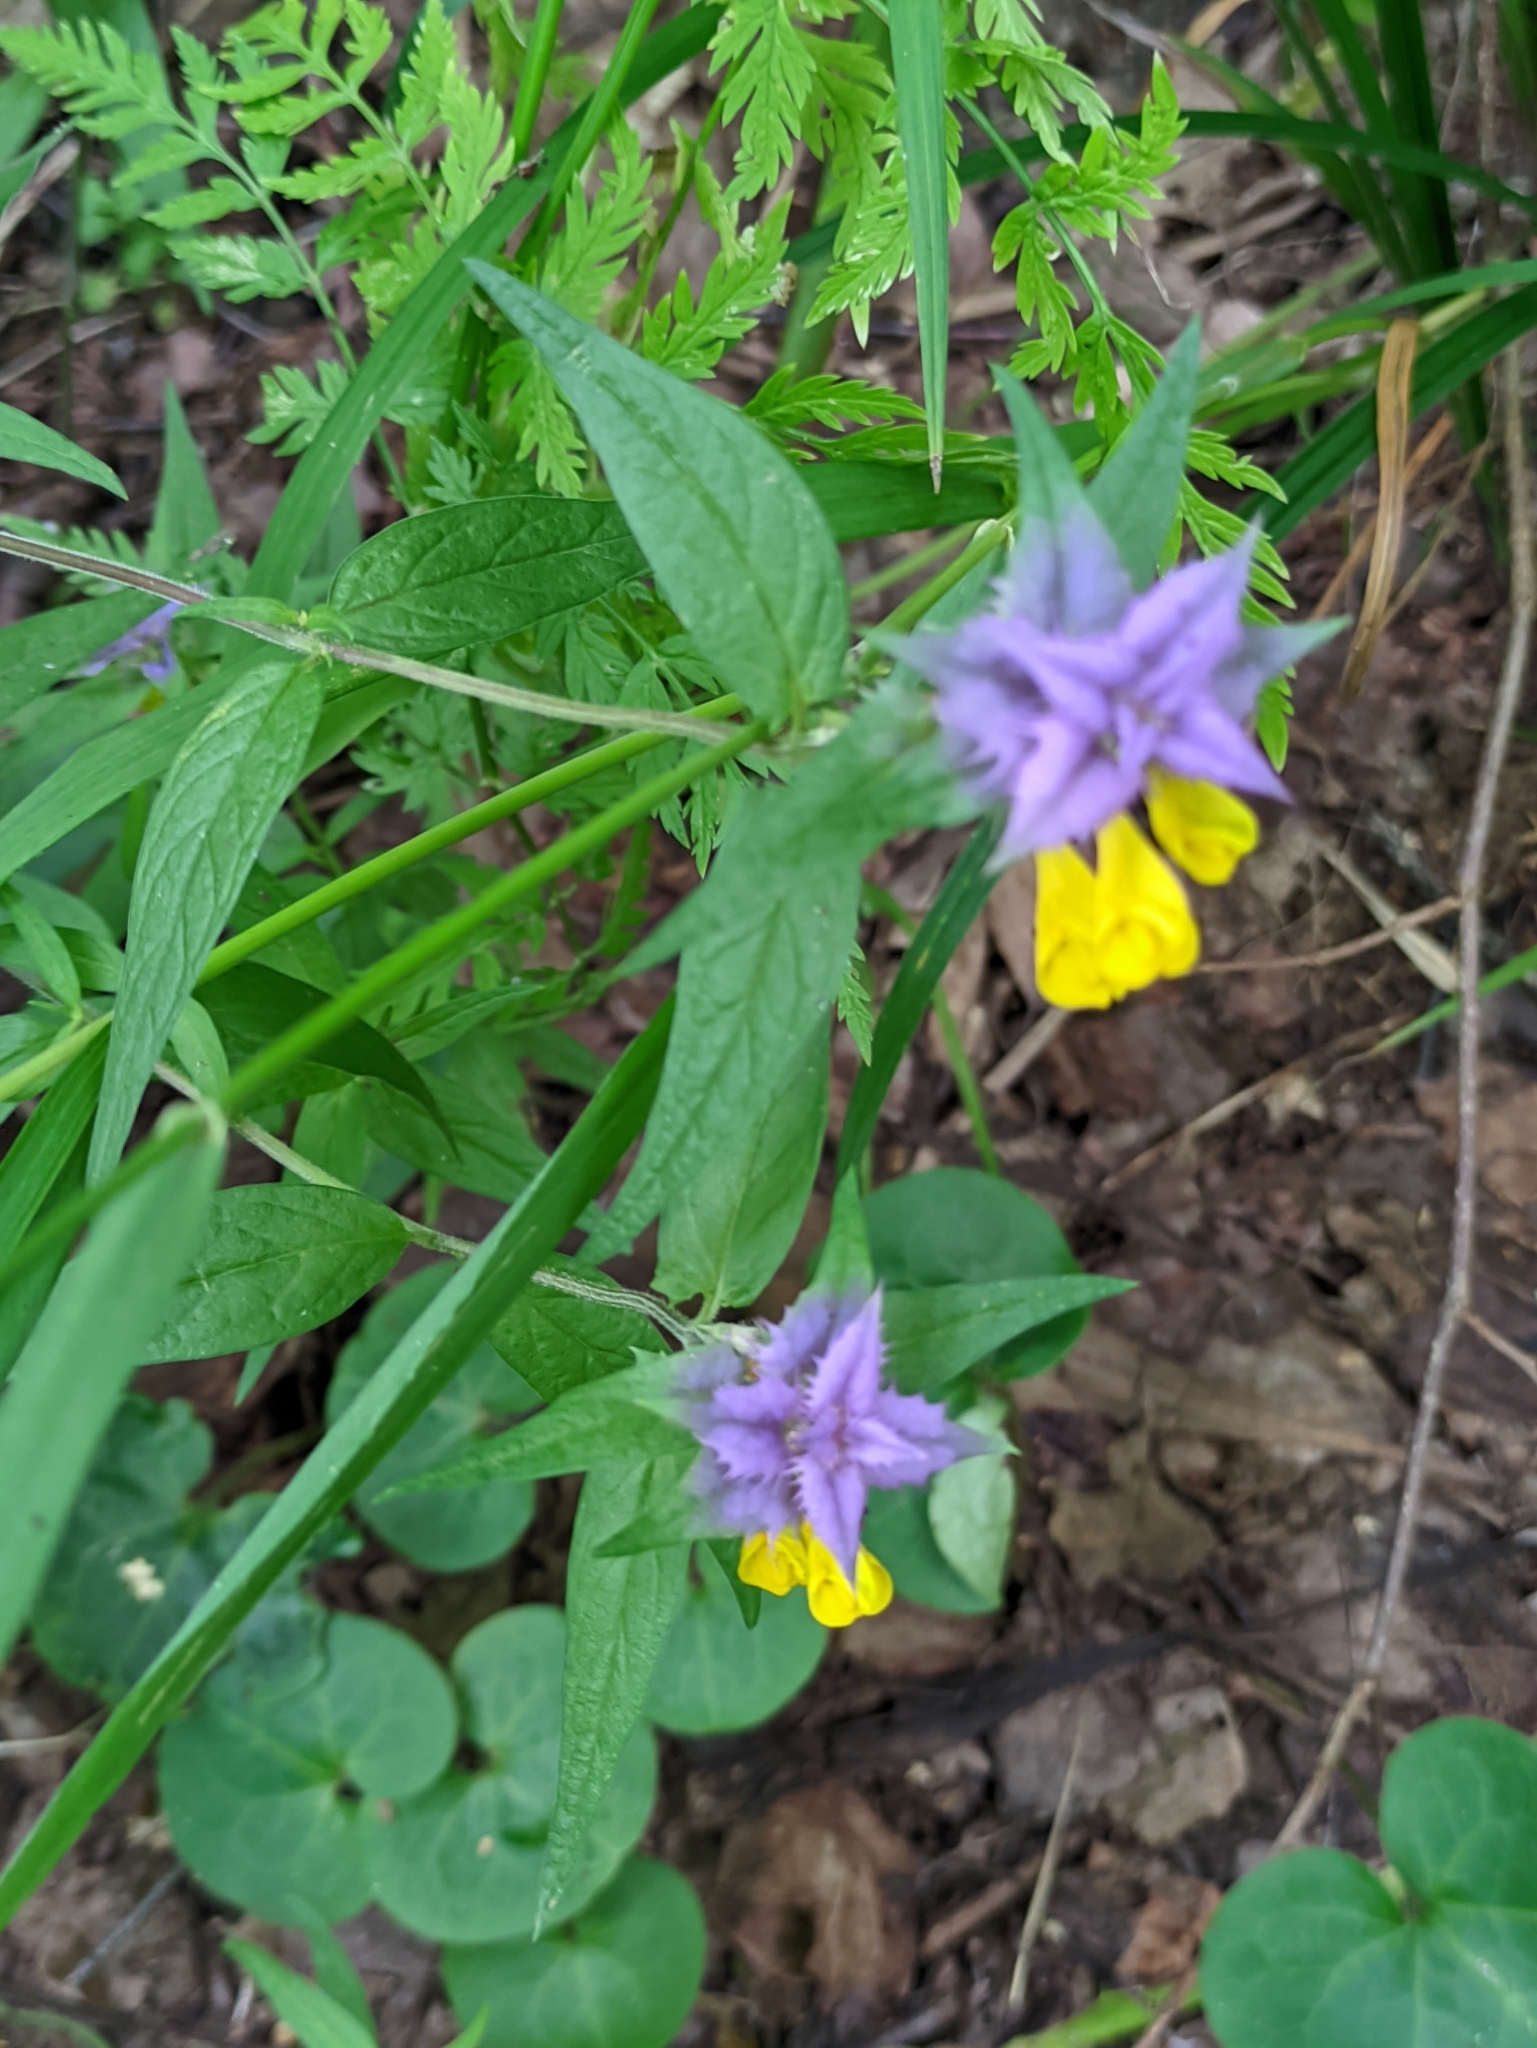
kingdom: Plantae
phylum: Tracheophyta
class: Magnoliopsida
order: Lamiales
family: Orobanchaceae
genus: Melampyrum
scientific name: Melampyrum nemorosum
